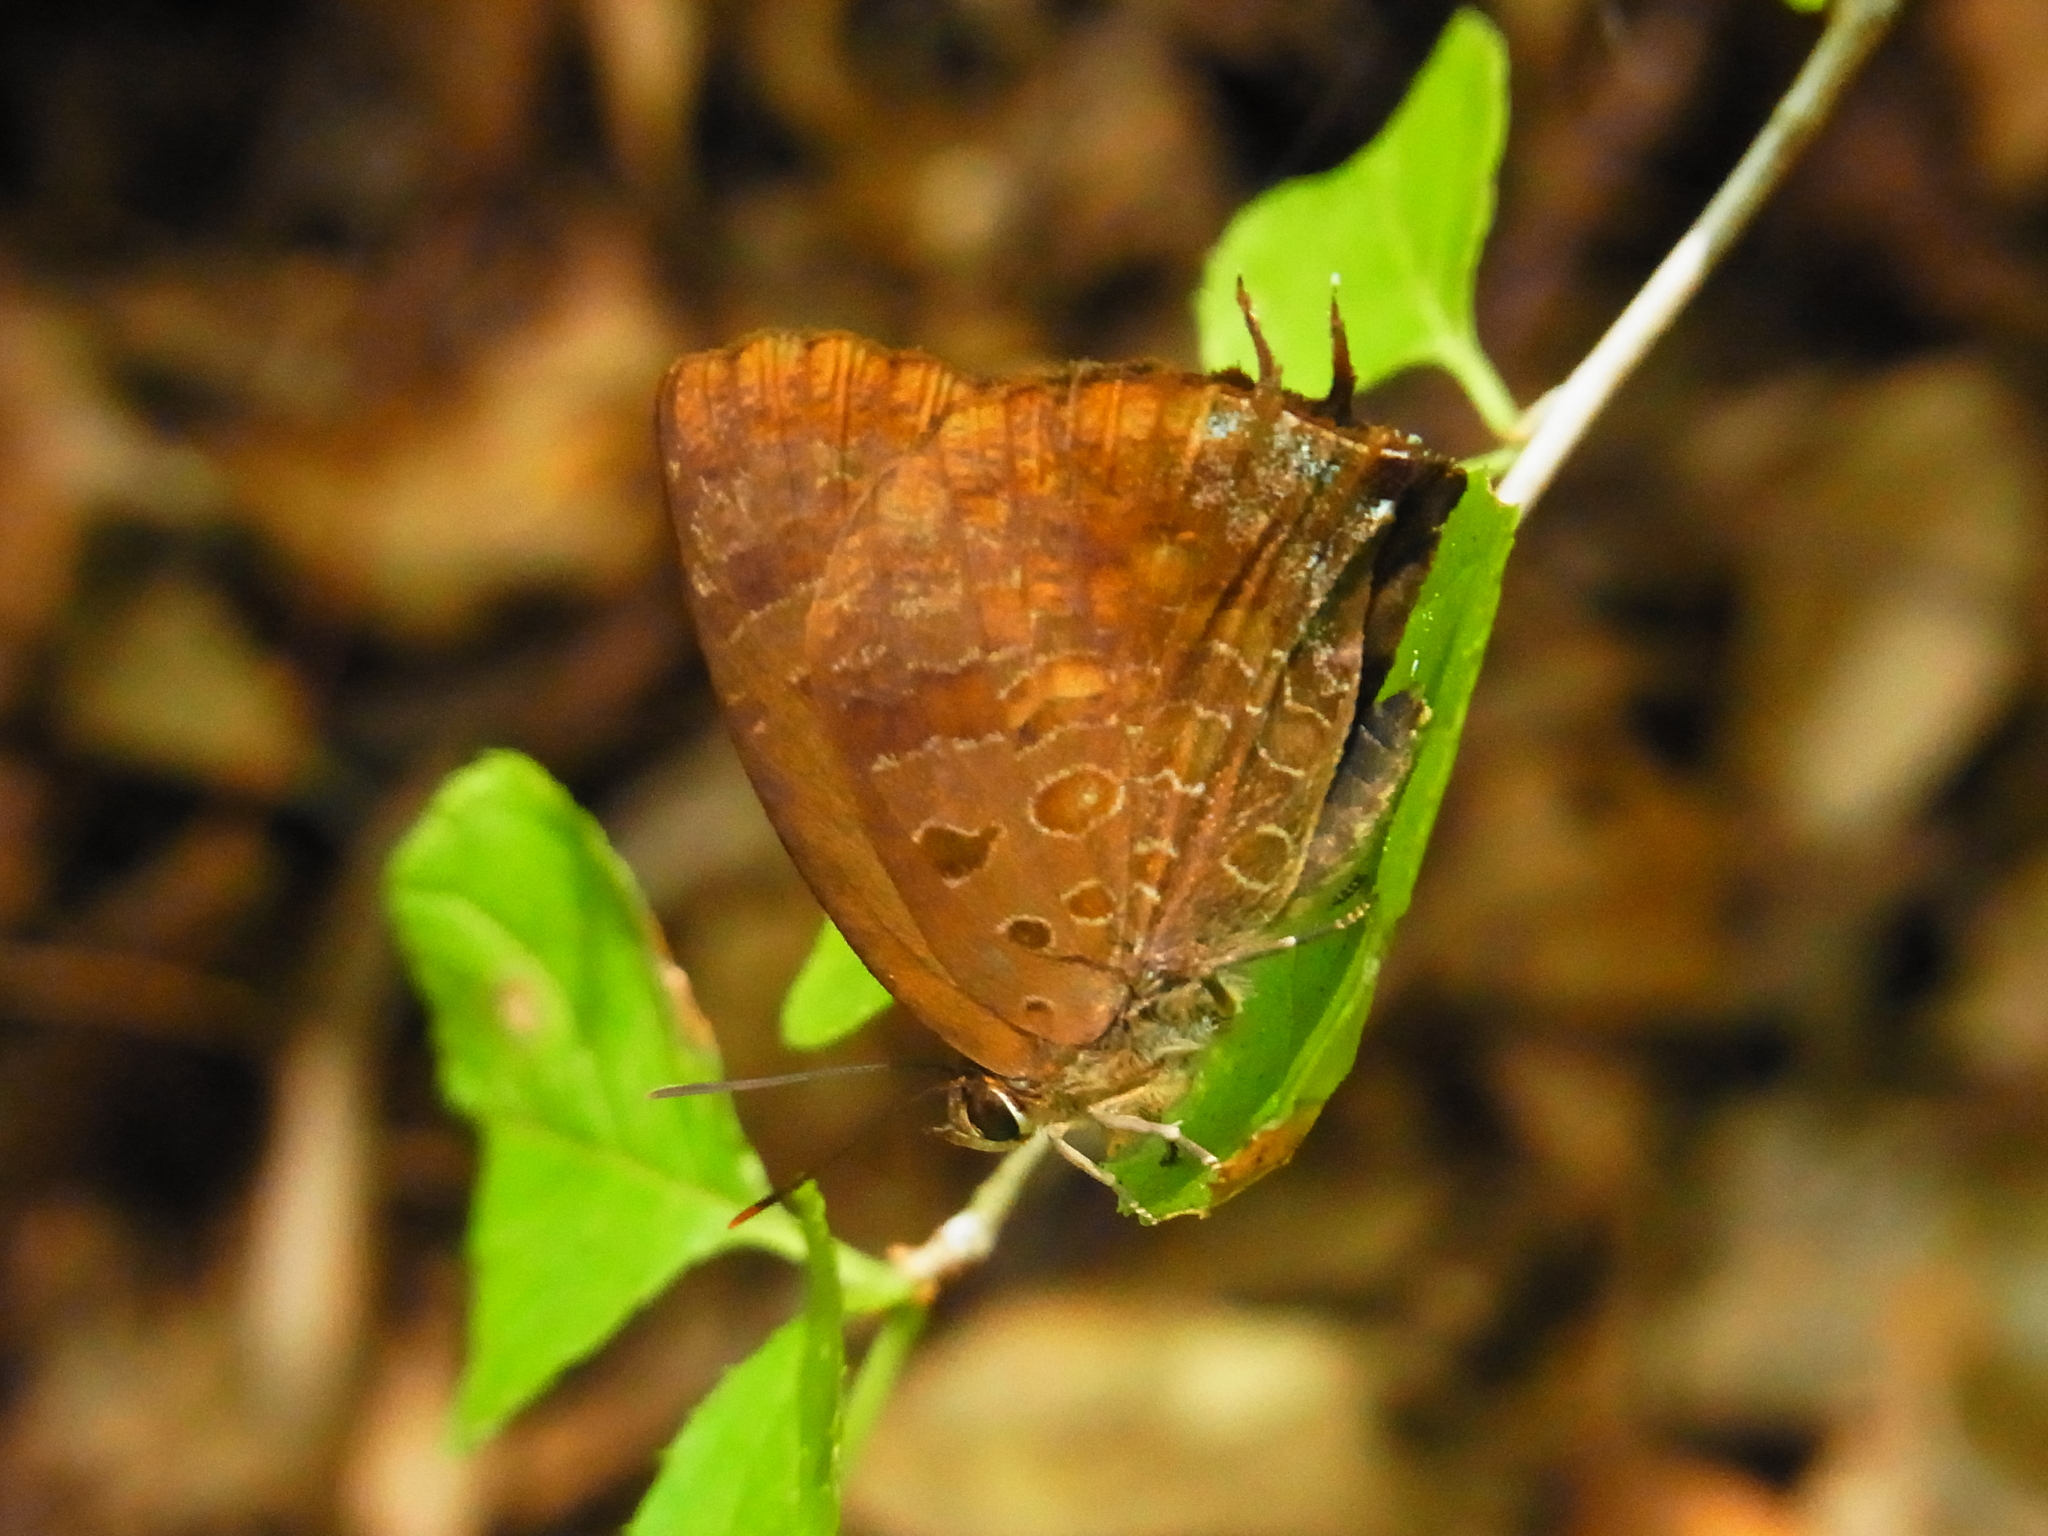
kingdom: Animalia
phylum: Arthropoda
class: Insecta
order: Lepidoptera
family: Lycaenidae
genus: Amblypodia
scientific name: Amblypodia turbata
